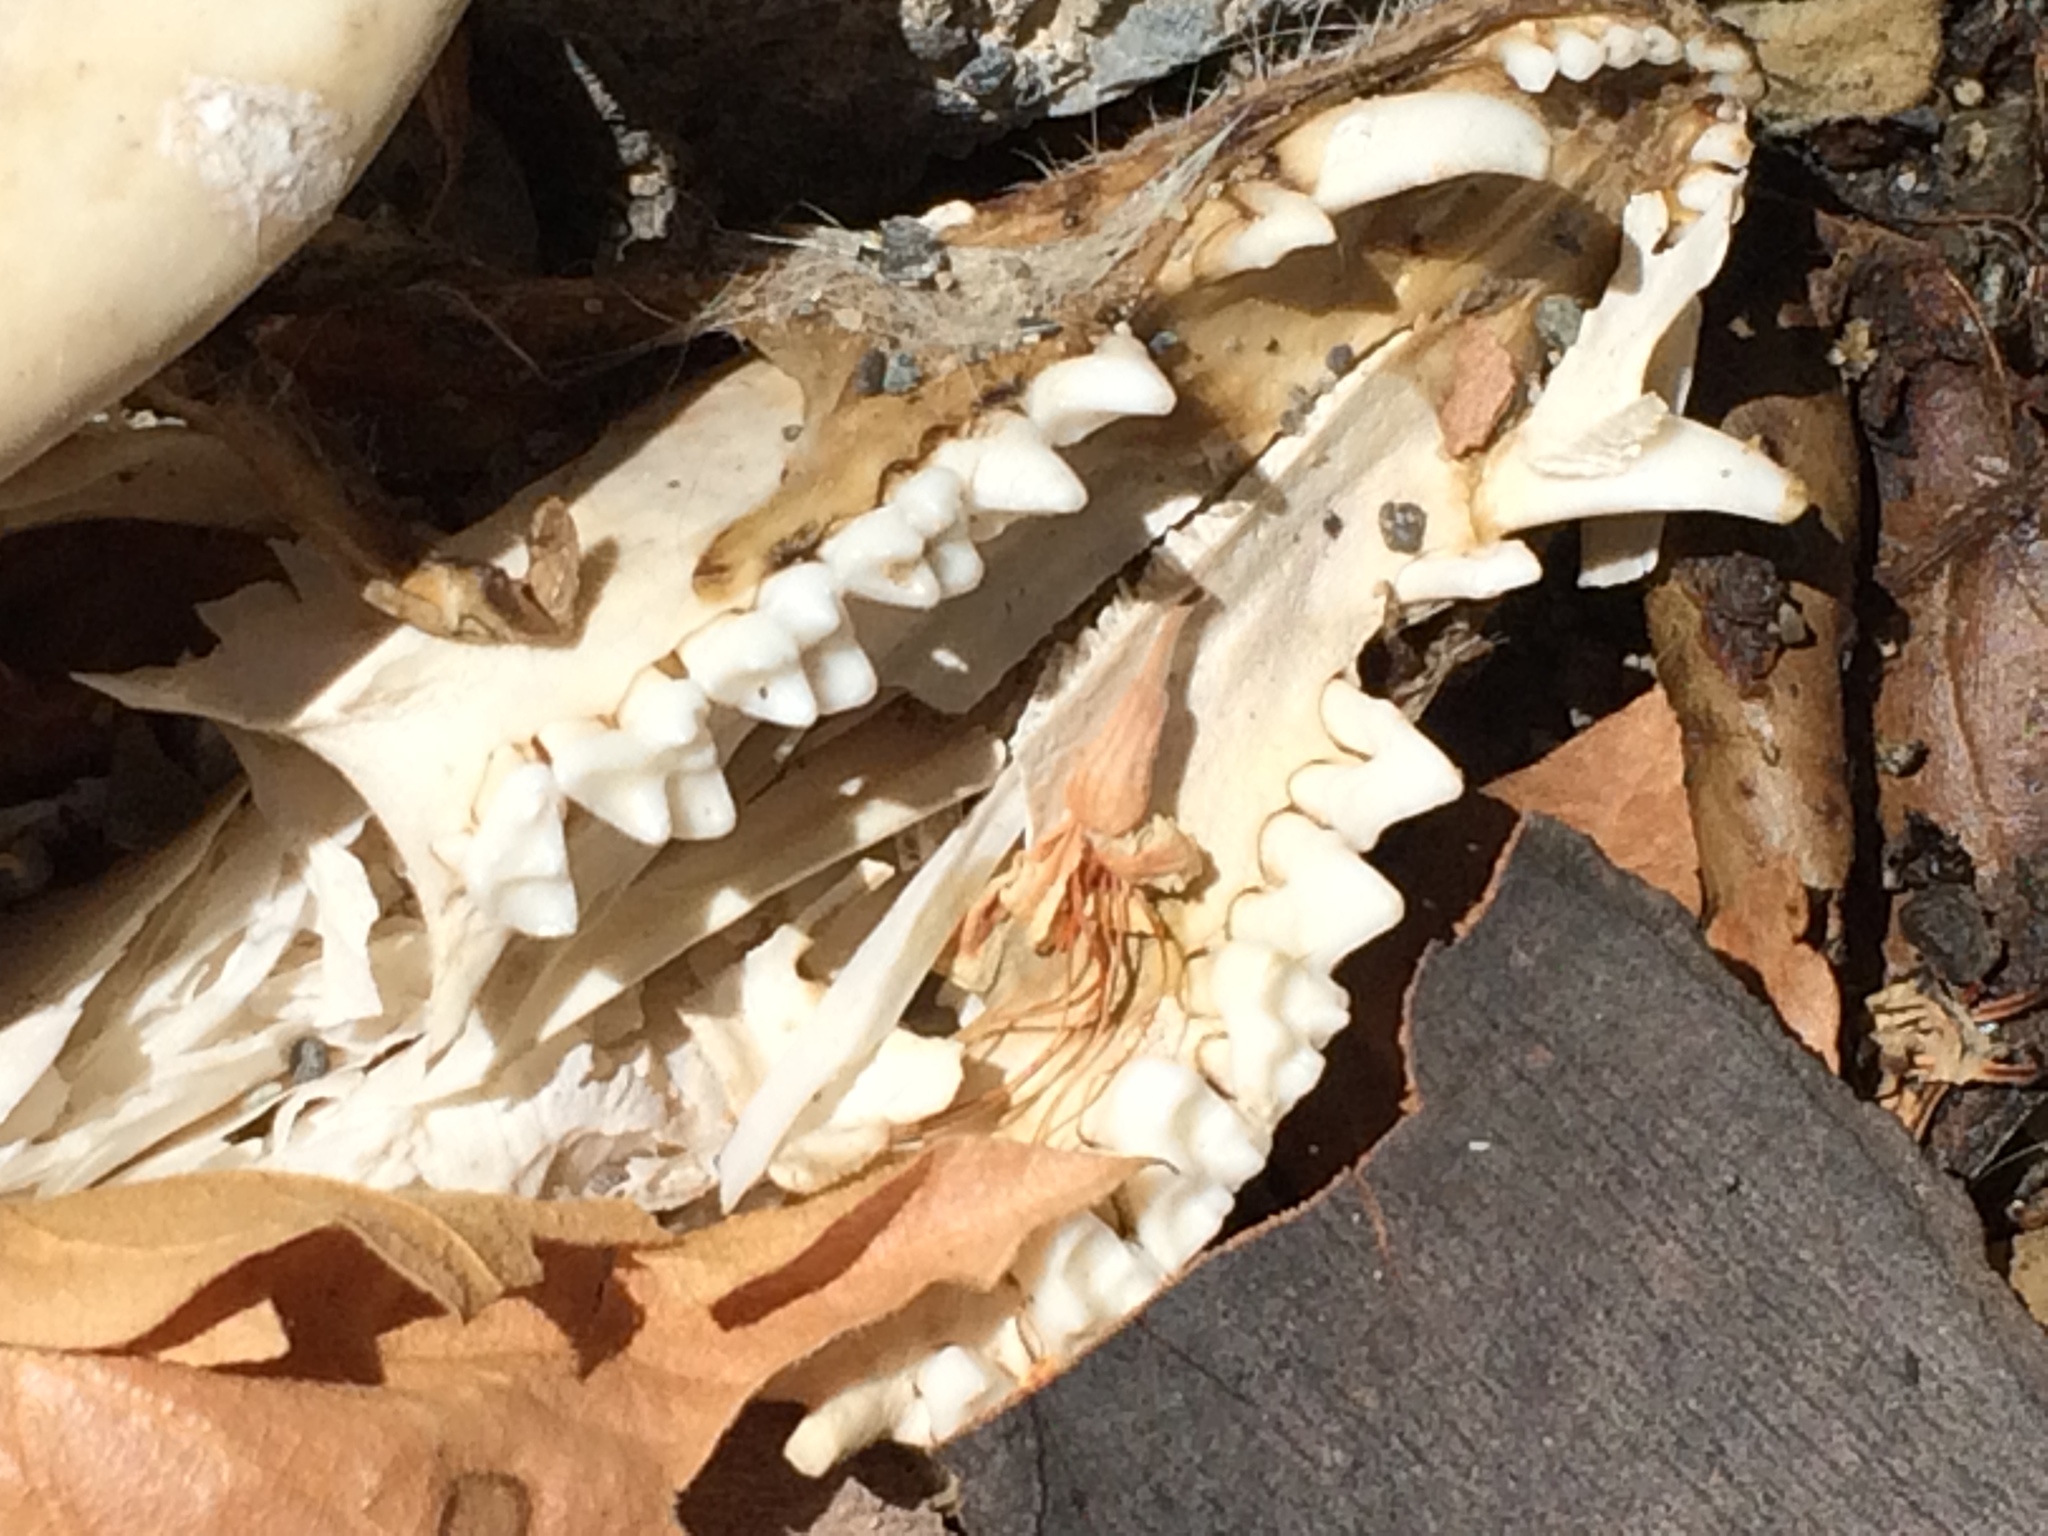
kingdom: Animalia
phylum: Chordata
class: Mammalia
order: Didelphimorphia
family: Didelphidae
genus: Didelphis
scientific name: Didelphis virginiana
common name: Virginia opossum
